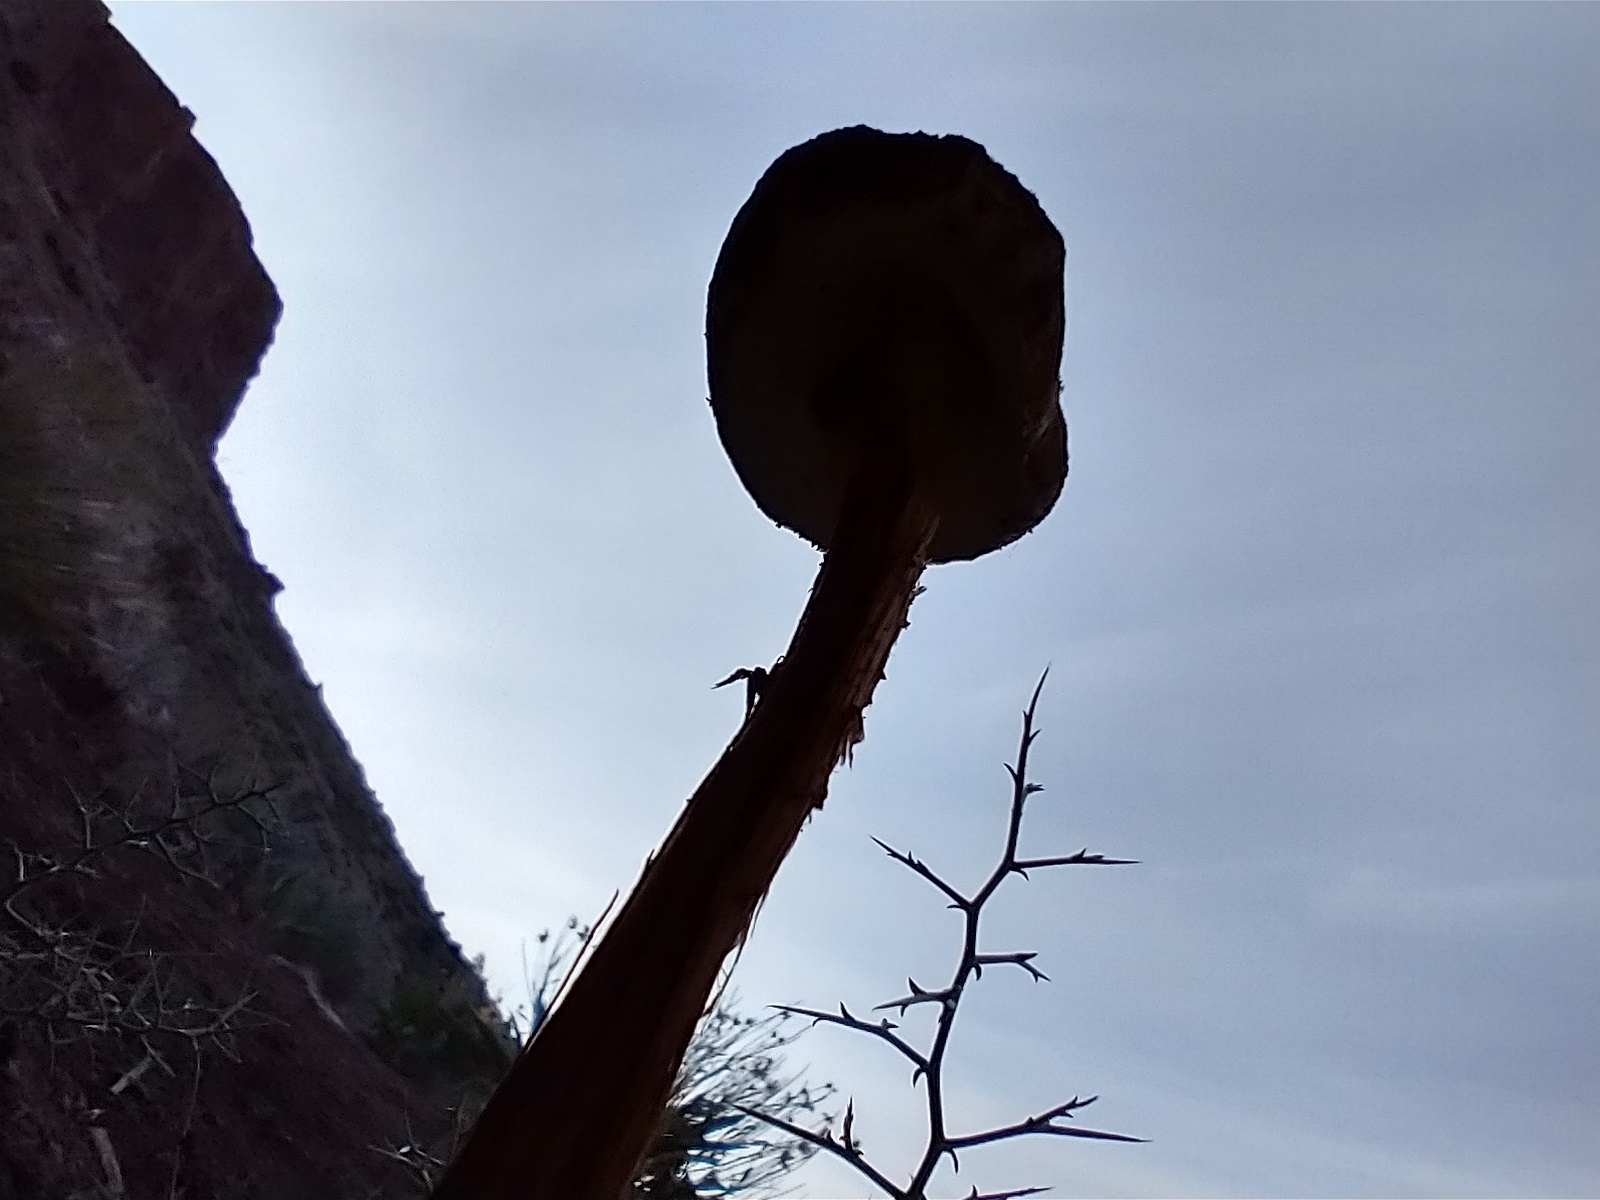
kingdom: Fungi
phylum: Basidiomycota
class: Agaricomycetes
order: Agaricales
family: Agaricaceae
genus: Battarrea
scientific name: Battarrea phalloides
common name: Sandy stiltball
